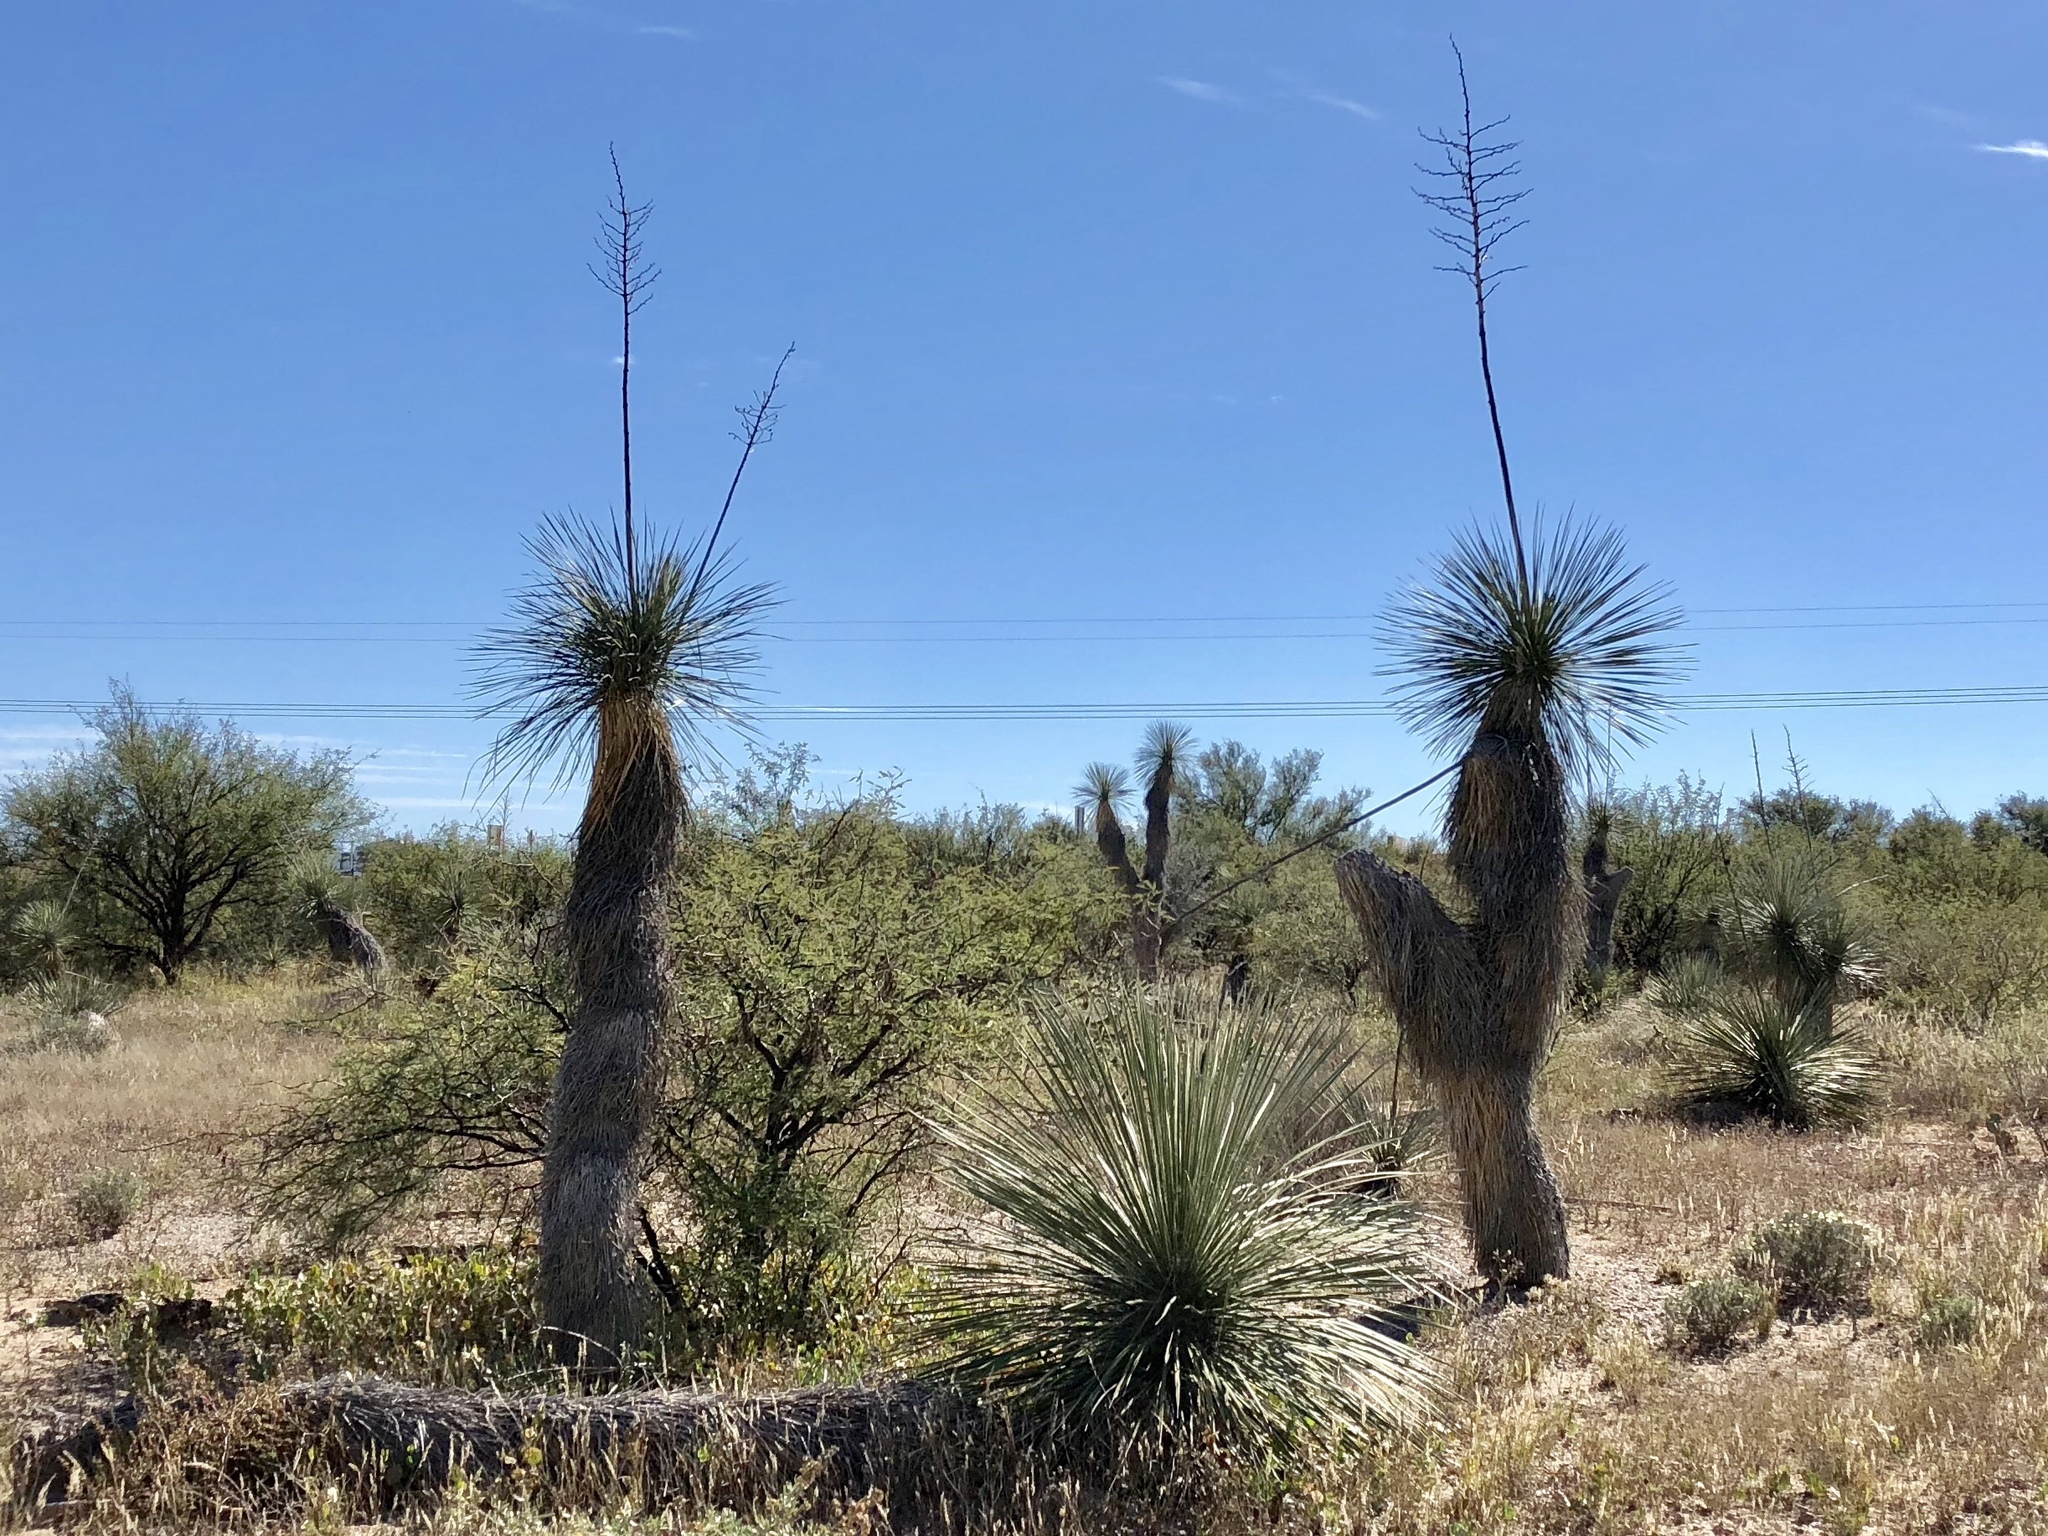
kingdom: Plantae
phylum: Tracheophyta
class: Liliopsida
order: Asparagales
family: Asparagaceae
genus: Yucca
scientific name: Yucca elata
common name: Palmella
